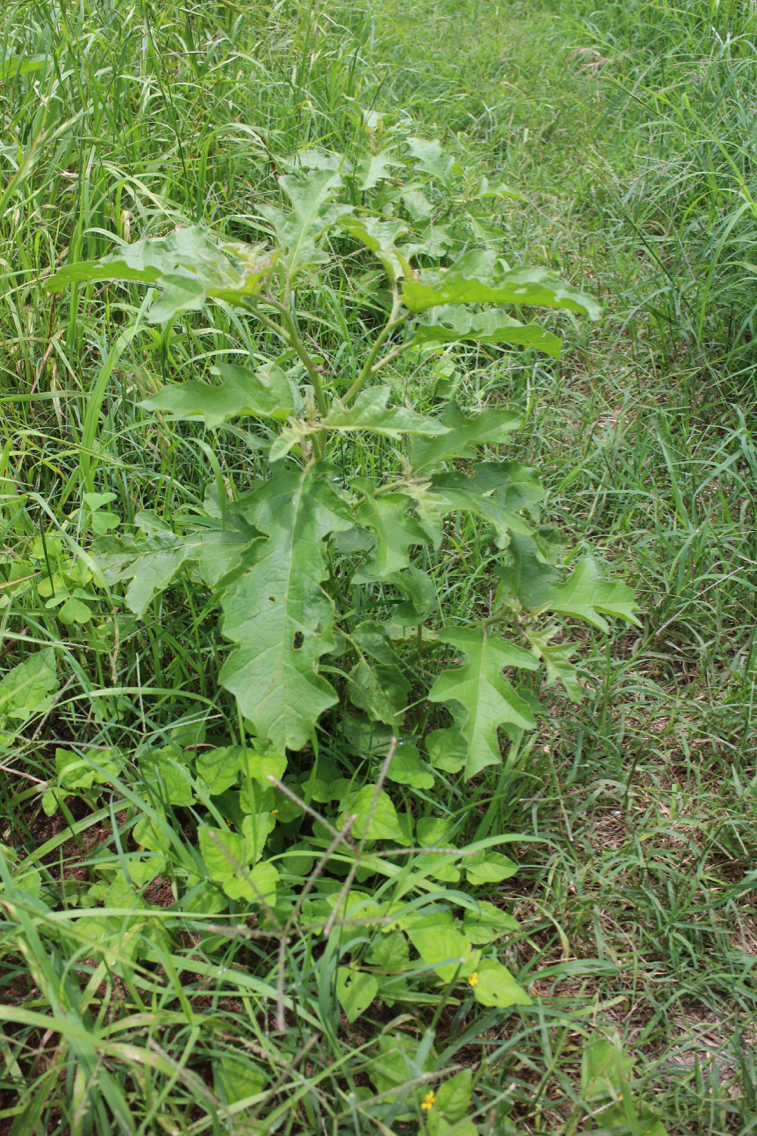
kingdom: Plantae
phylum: Tracheophyta
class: Magnoliopsida
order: Solanales
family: Solanaceae
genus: Solanum
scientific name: Solanum dimidiatum
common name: Carolina horse-nettle
